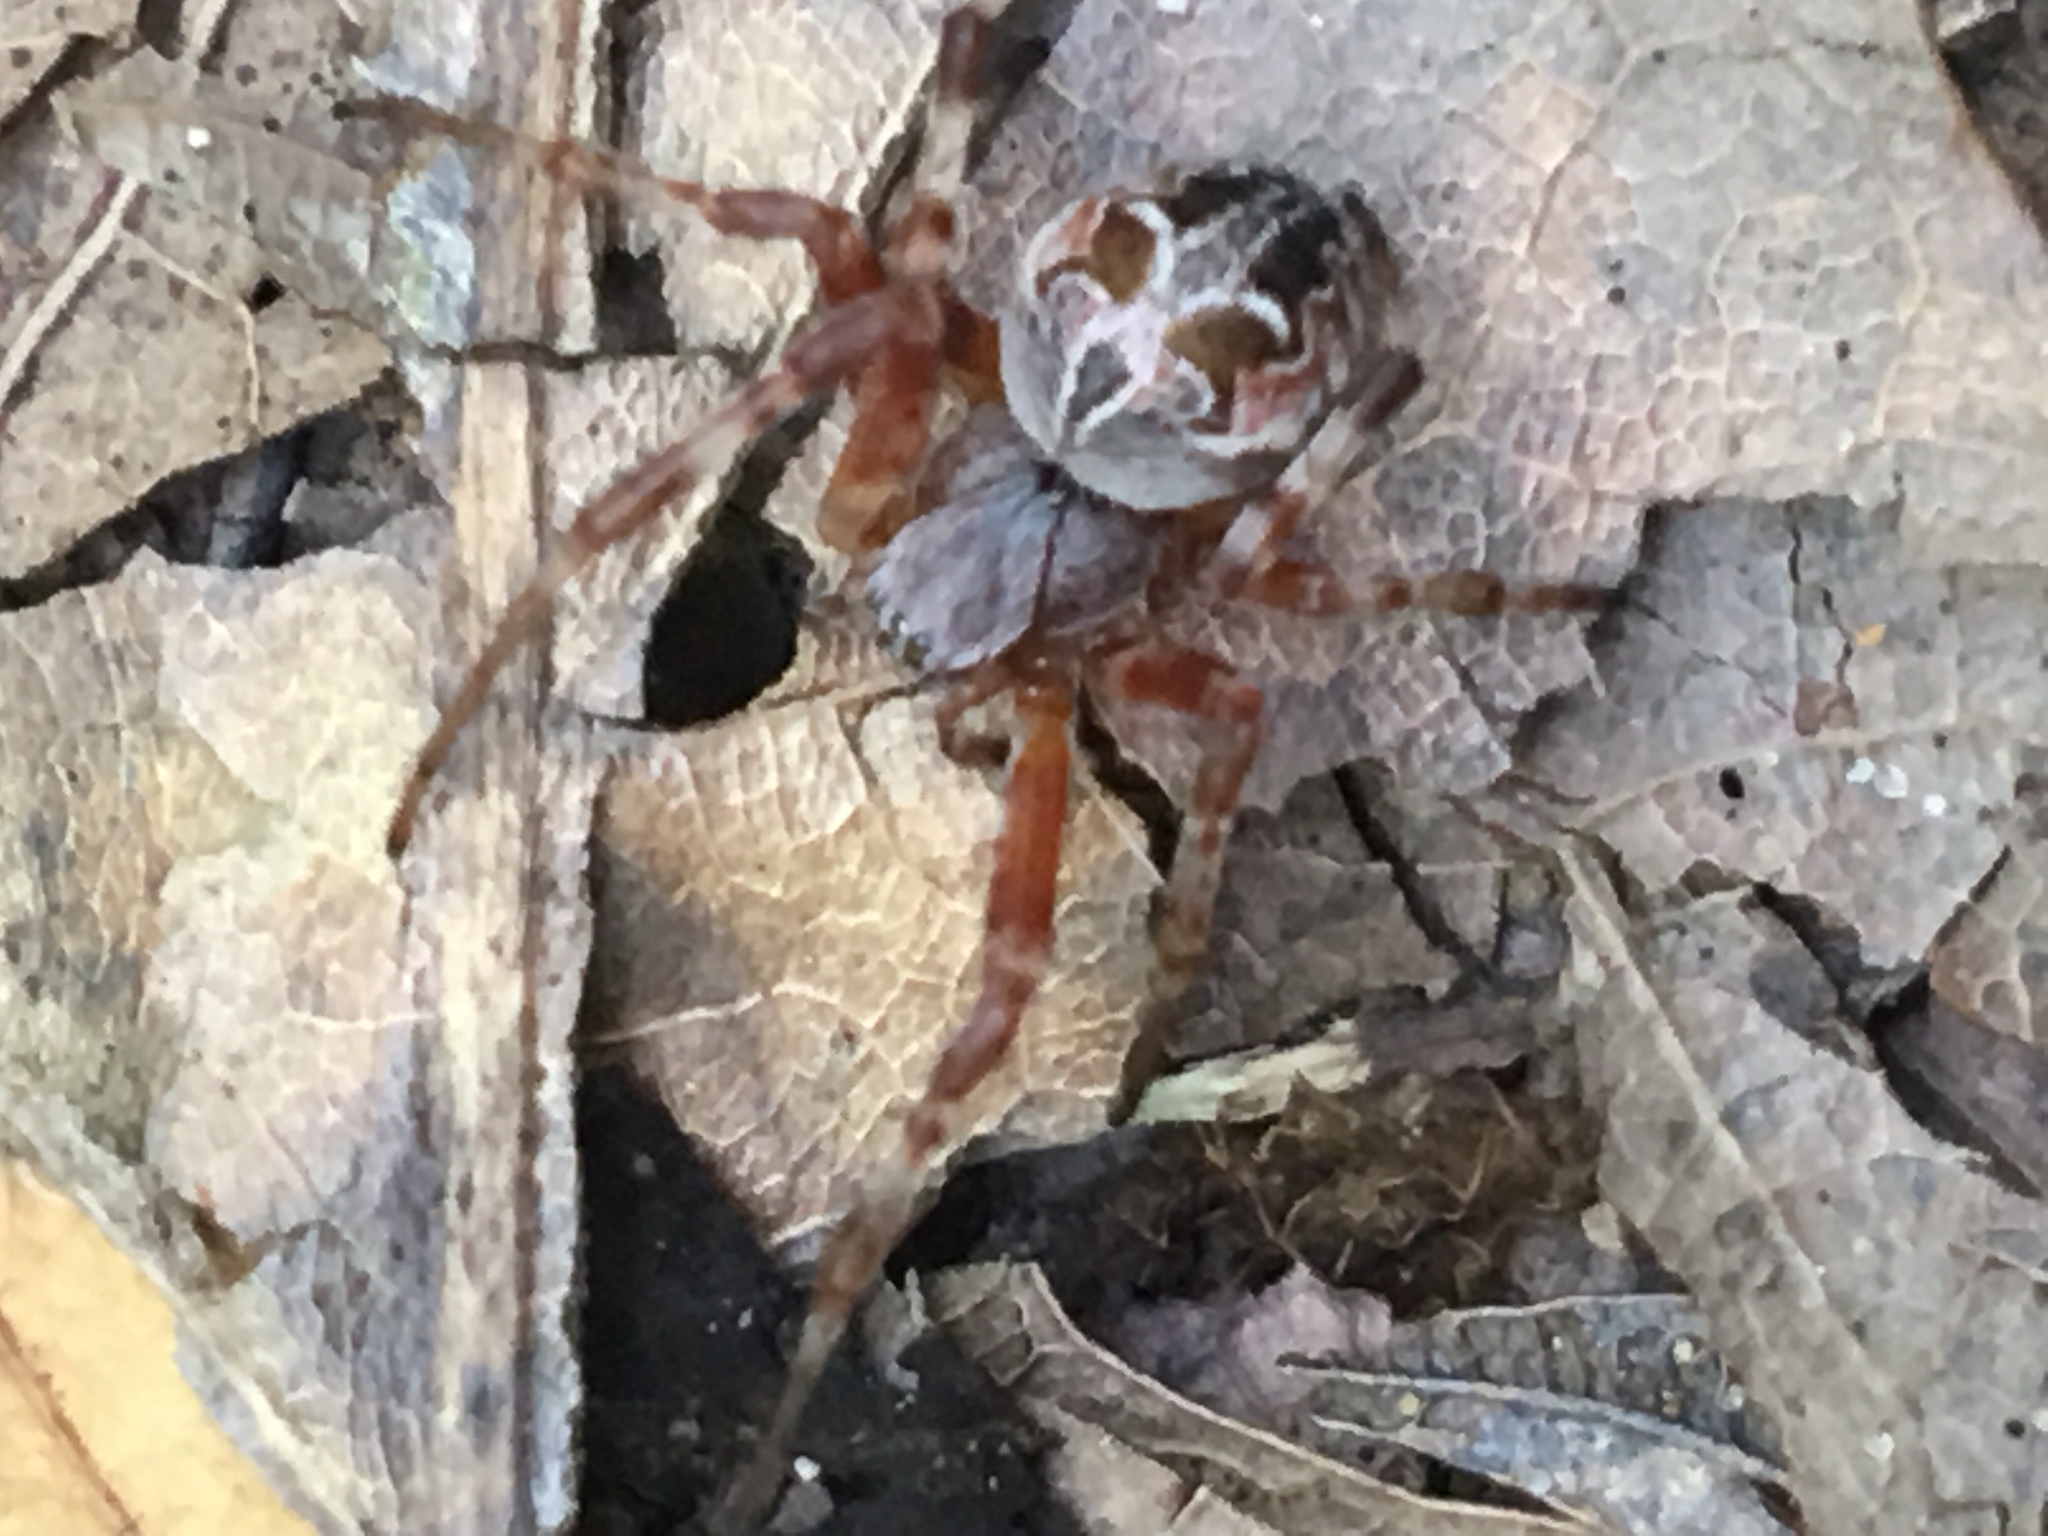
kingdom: Animalia
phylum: Arthropoda
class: Arachnida
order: Araneae
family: Araneidae
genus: Metepeira
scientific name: Metepeira labyrinthea
